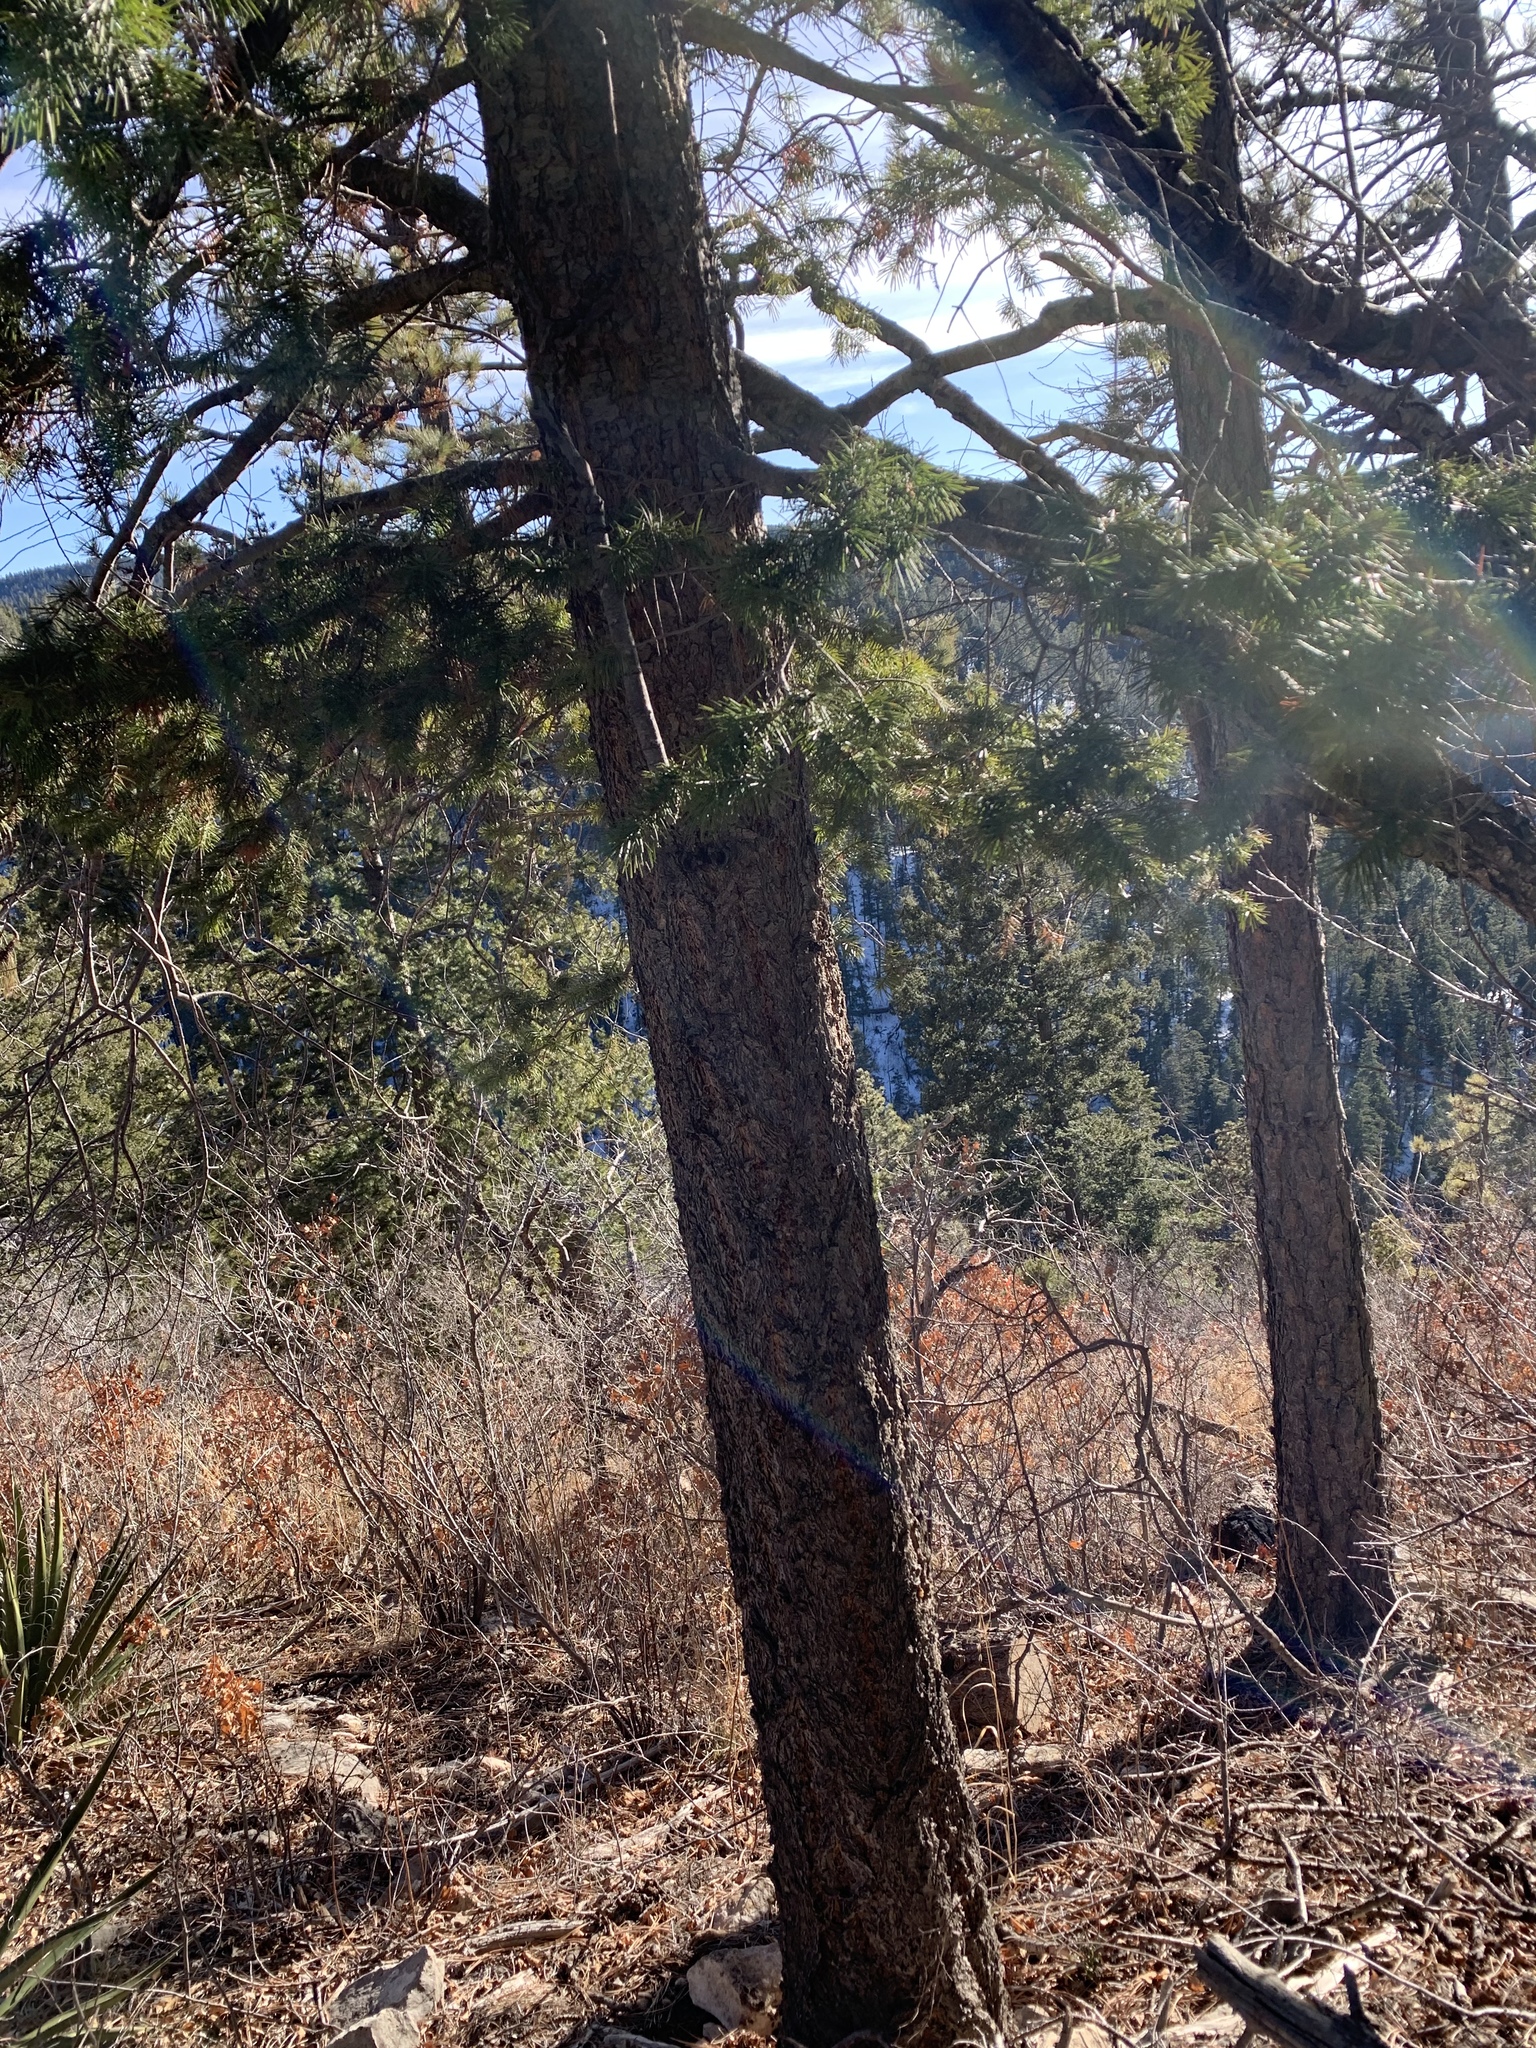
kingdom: Plantae
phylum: Tracheophyta
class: Pinopsida
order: Pinales
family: Pinaceae
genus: Pseudotsuga
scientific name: Pseudotsuga menziesii
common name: Douglas fir
